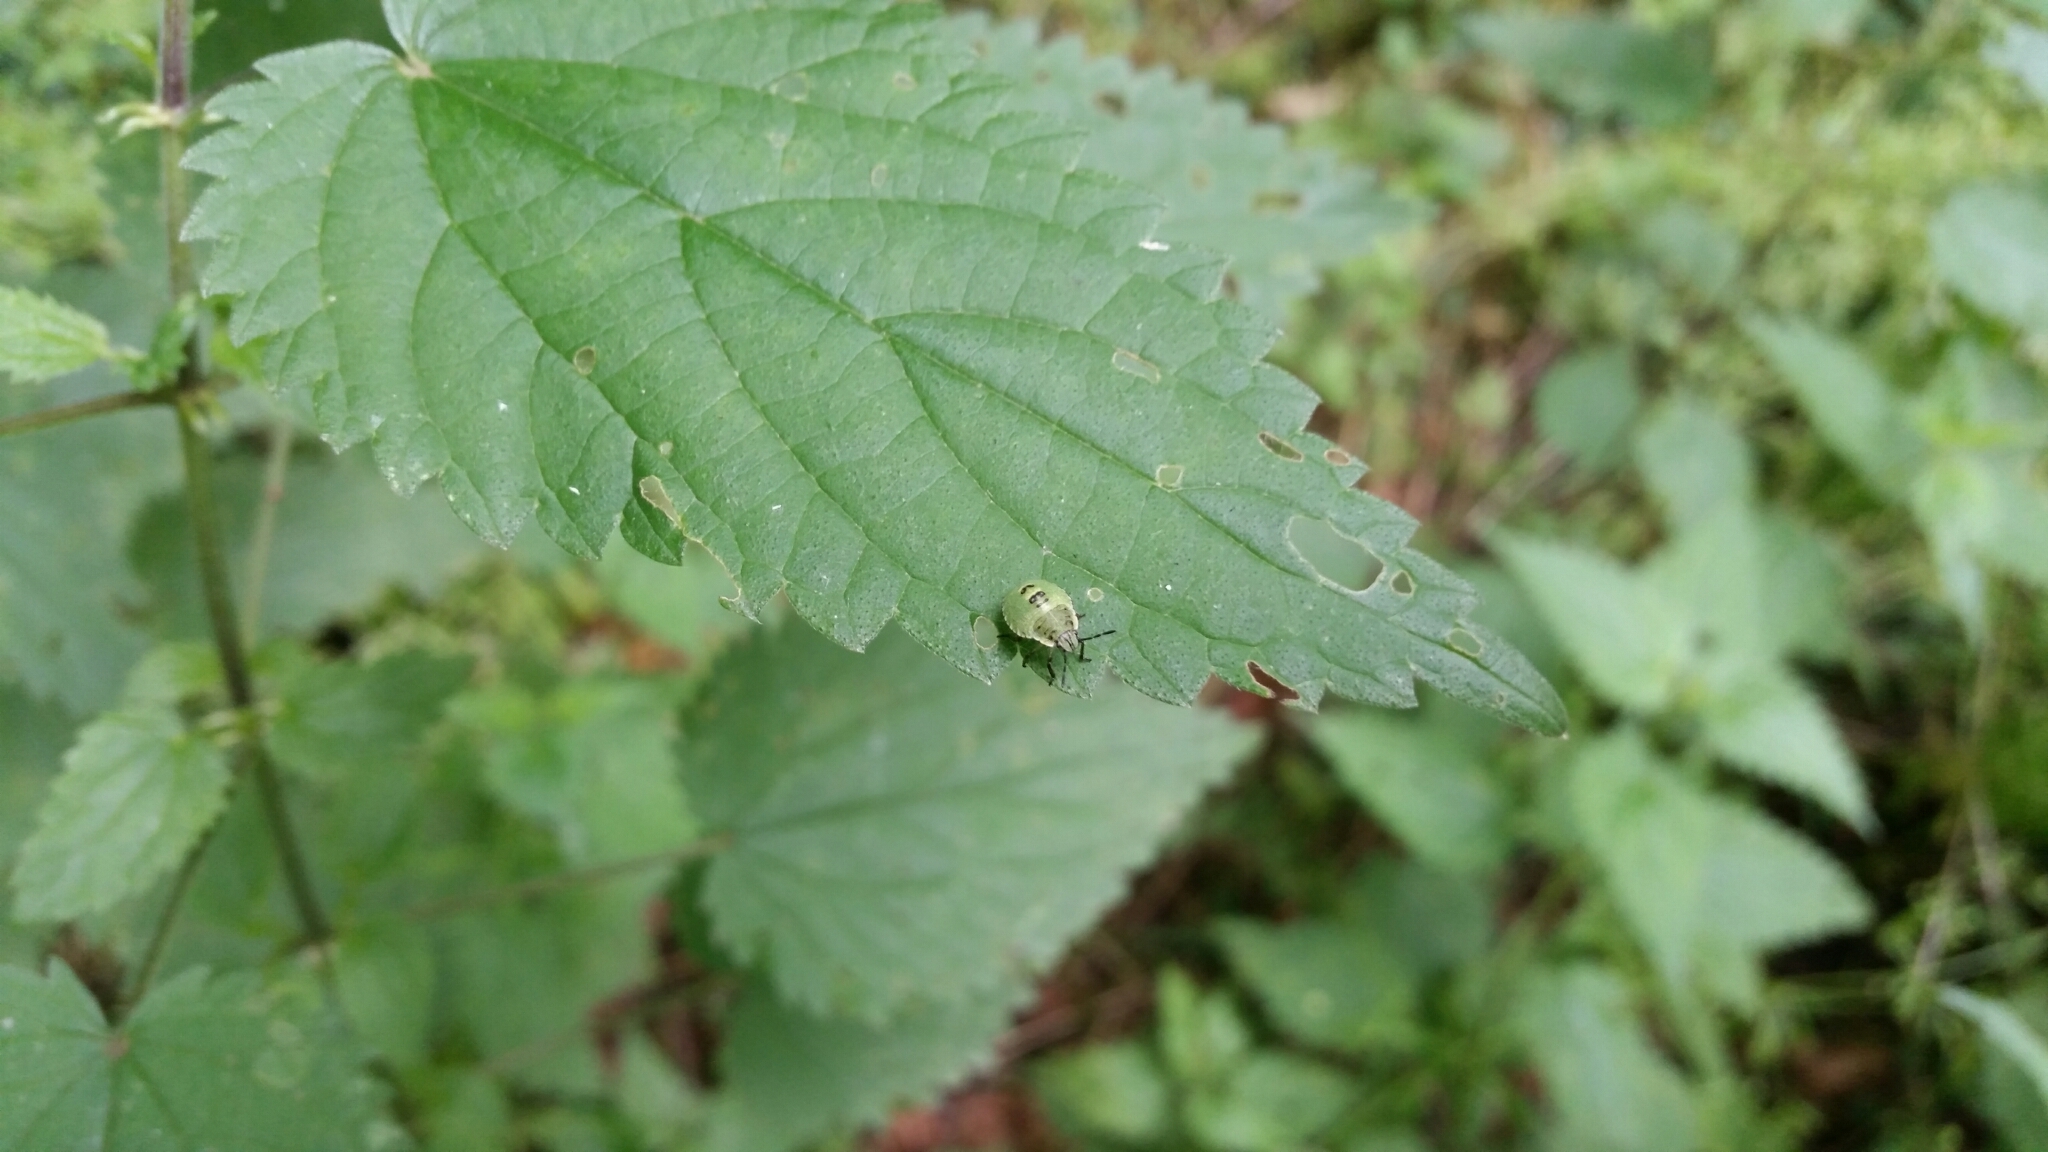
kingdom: Animalia
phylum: Arthropoda
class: Insecta
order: Hemiptera
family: Pentatomidae
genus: Palomena
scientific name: Palomena prasina
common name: Green shieldbug
